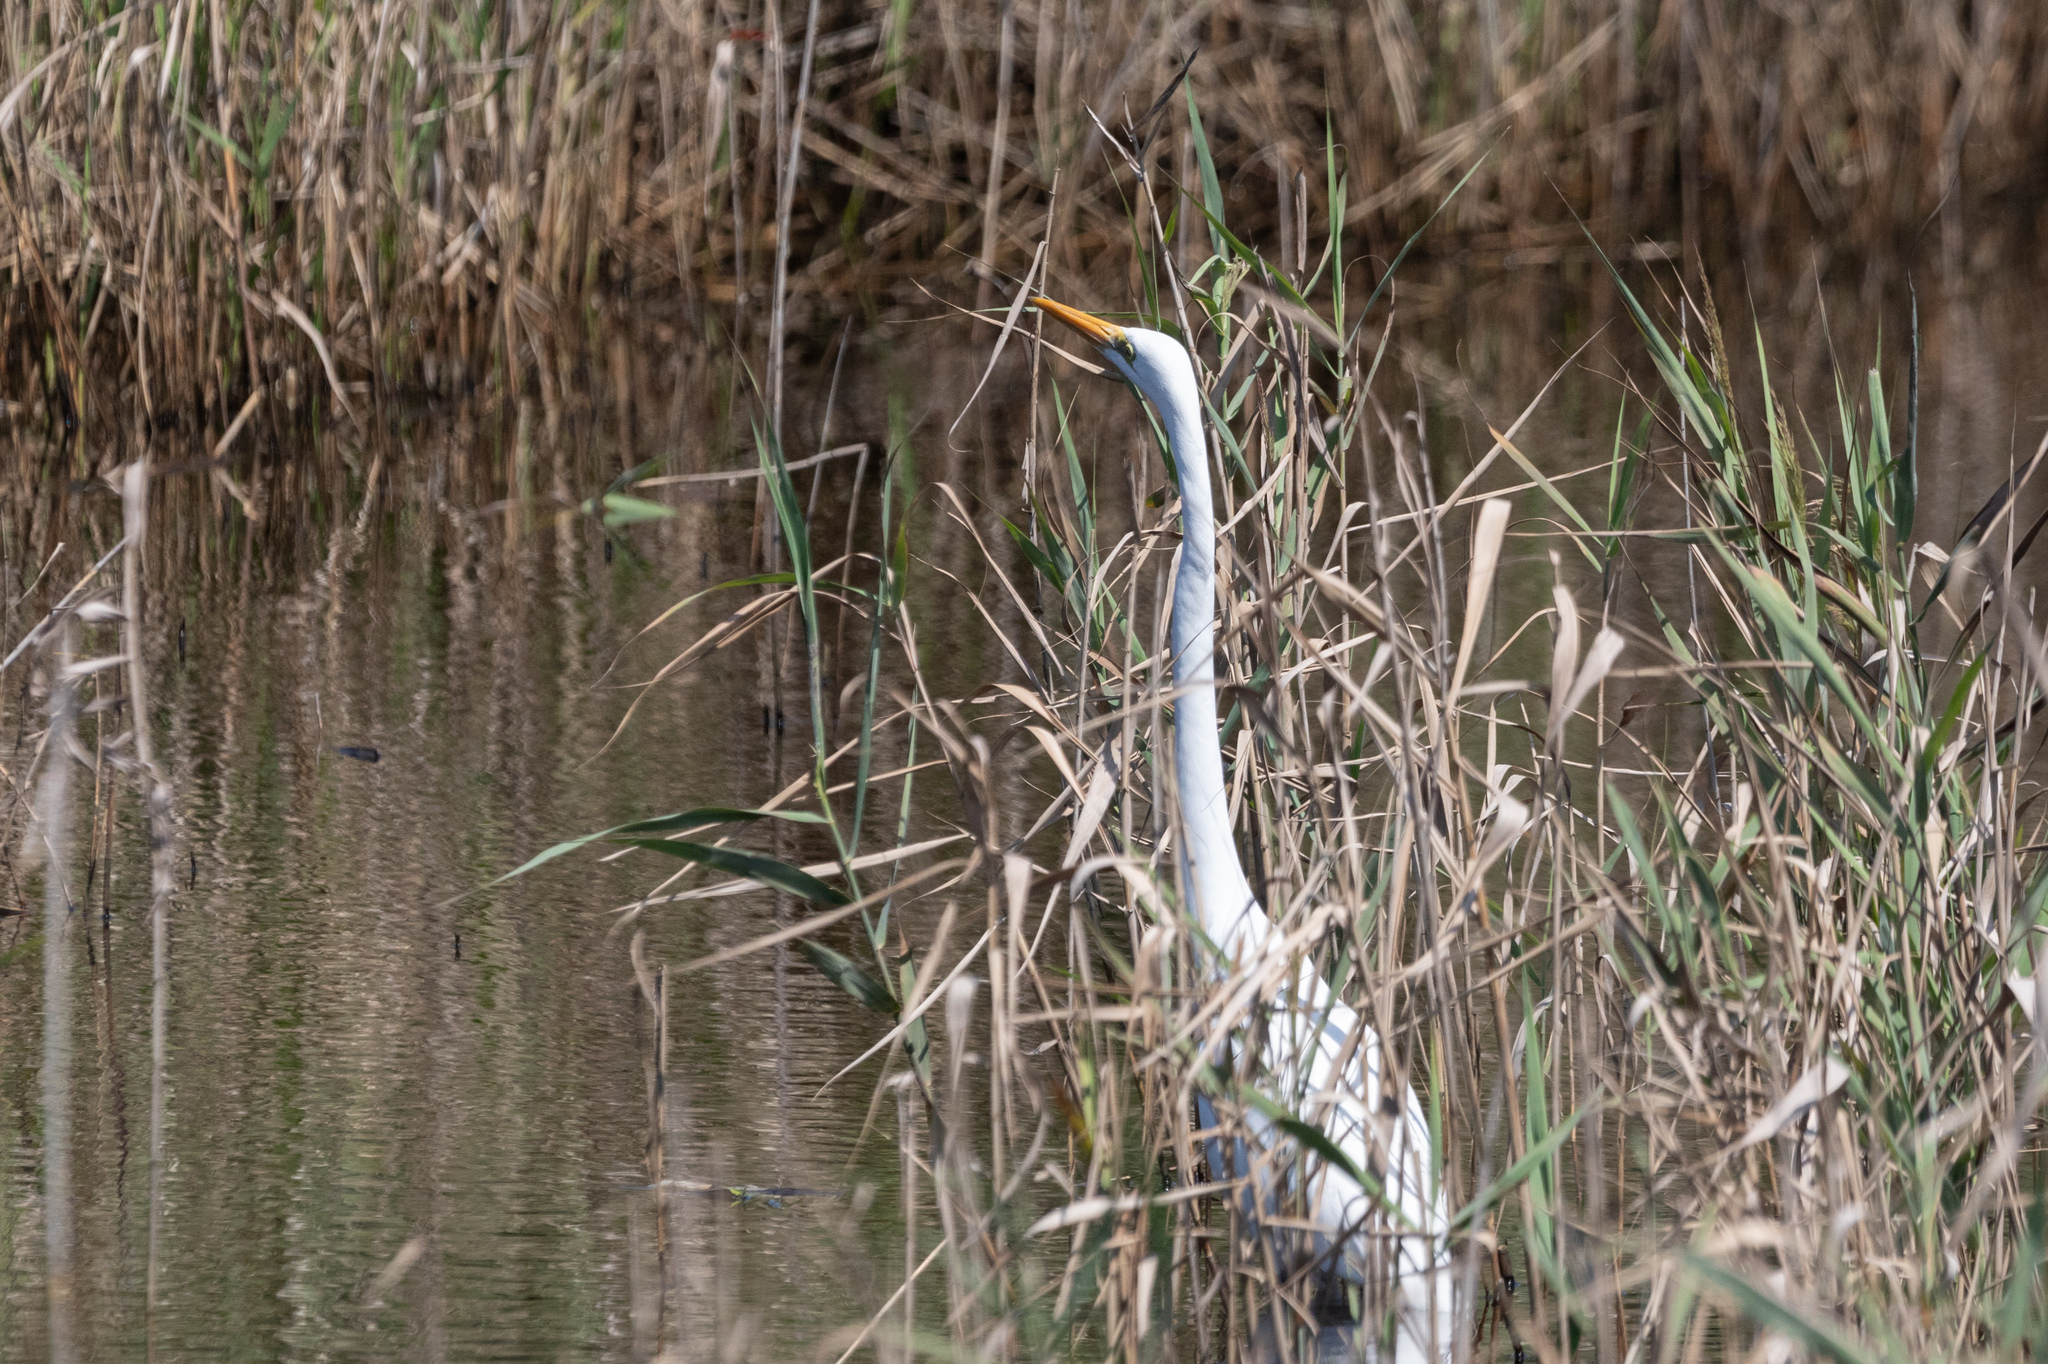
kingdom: Animalia
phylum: Chordata
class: Aves
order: Pelecaniformes
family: Ardeidae
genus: Ardea
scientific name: Ardea alba
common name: Great egret
